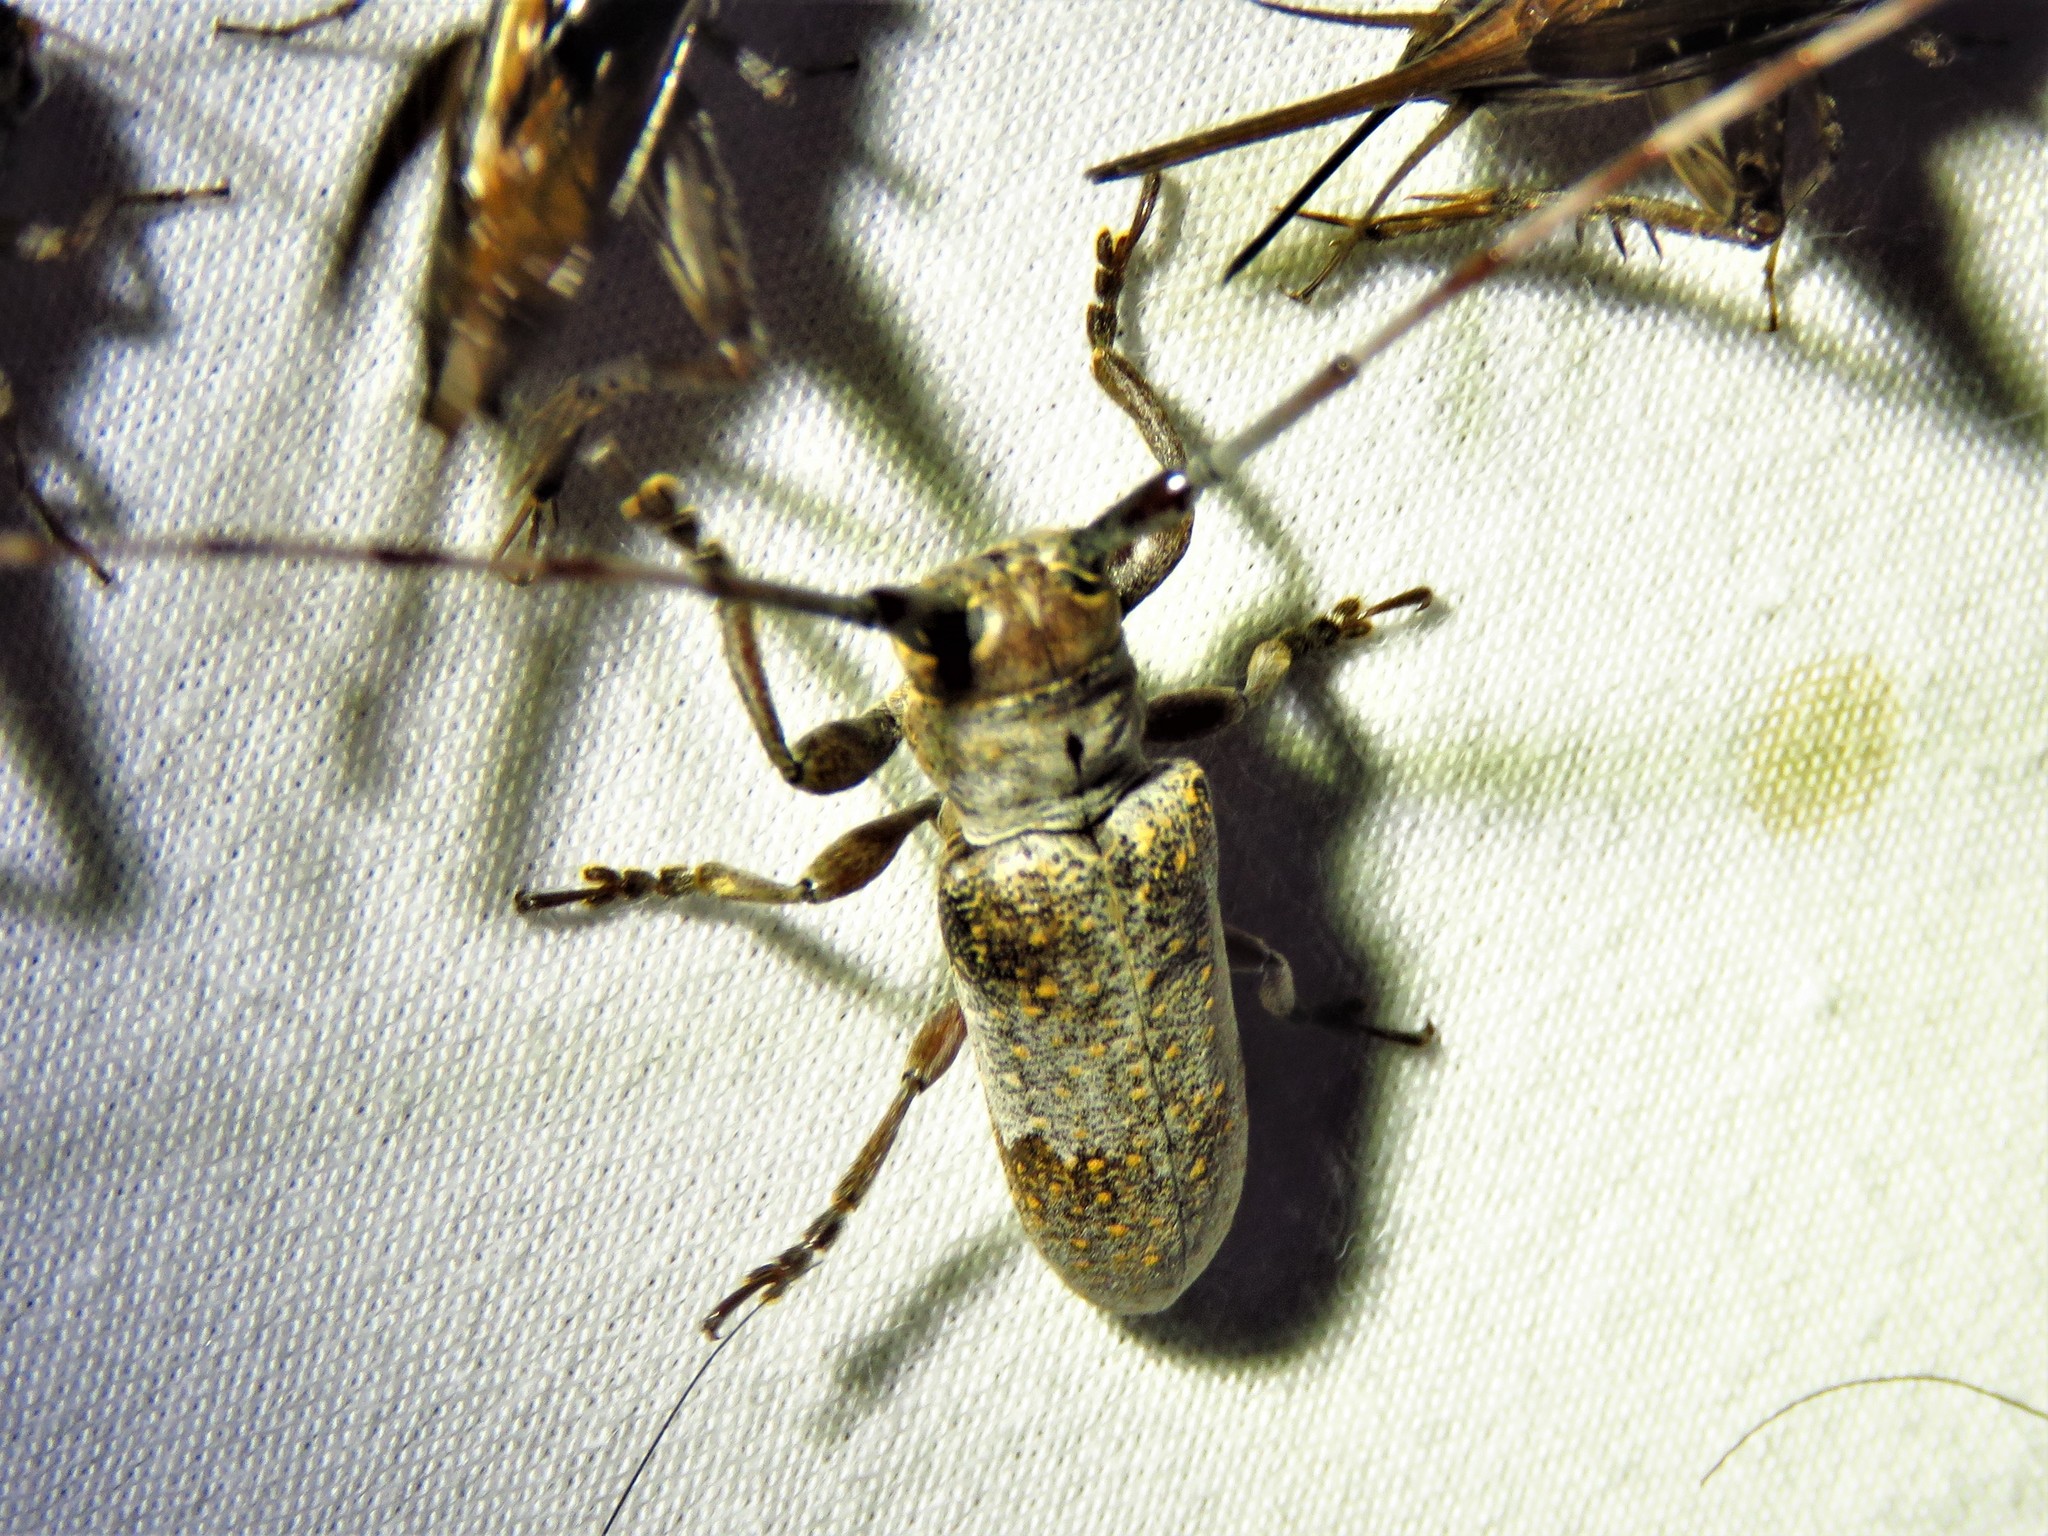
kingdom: Animalia
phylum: Arthropoda
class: Insecta
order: Coleoptera
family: Cerambycidae
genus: Oncideres
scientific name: Oncideres cingulata
